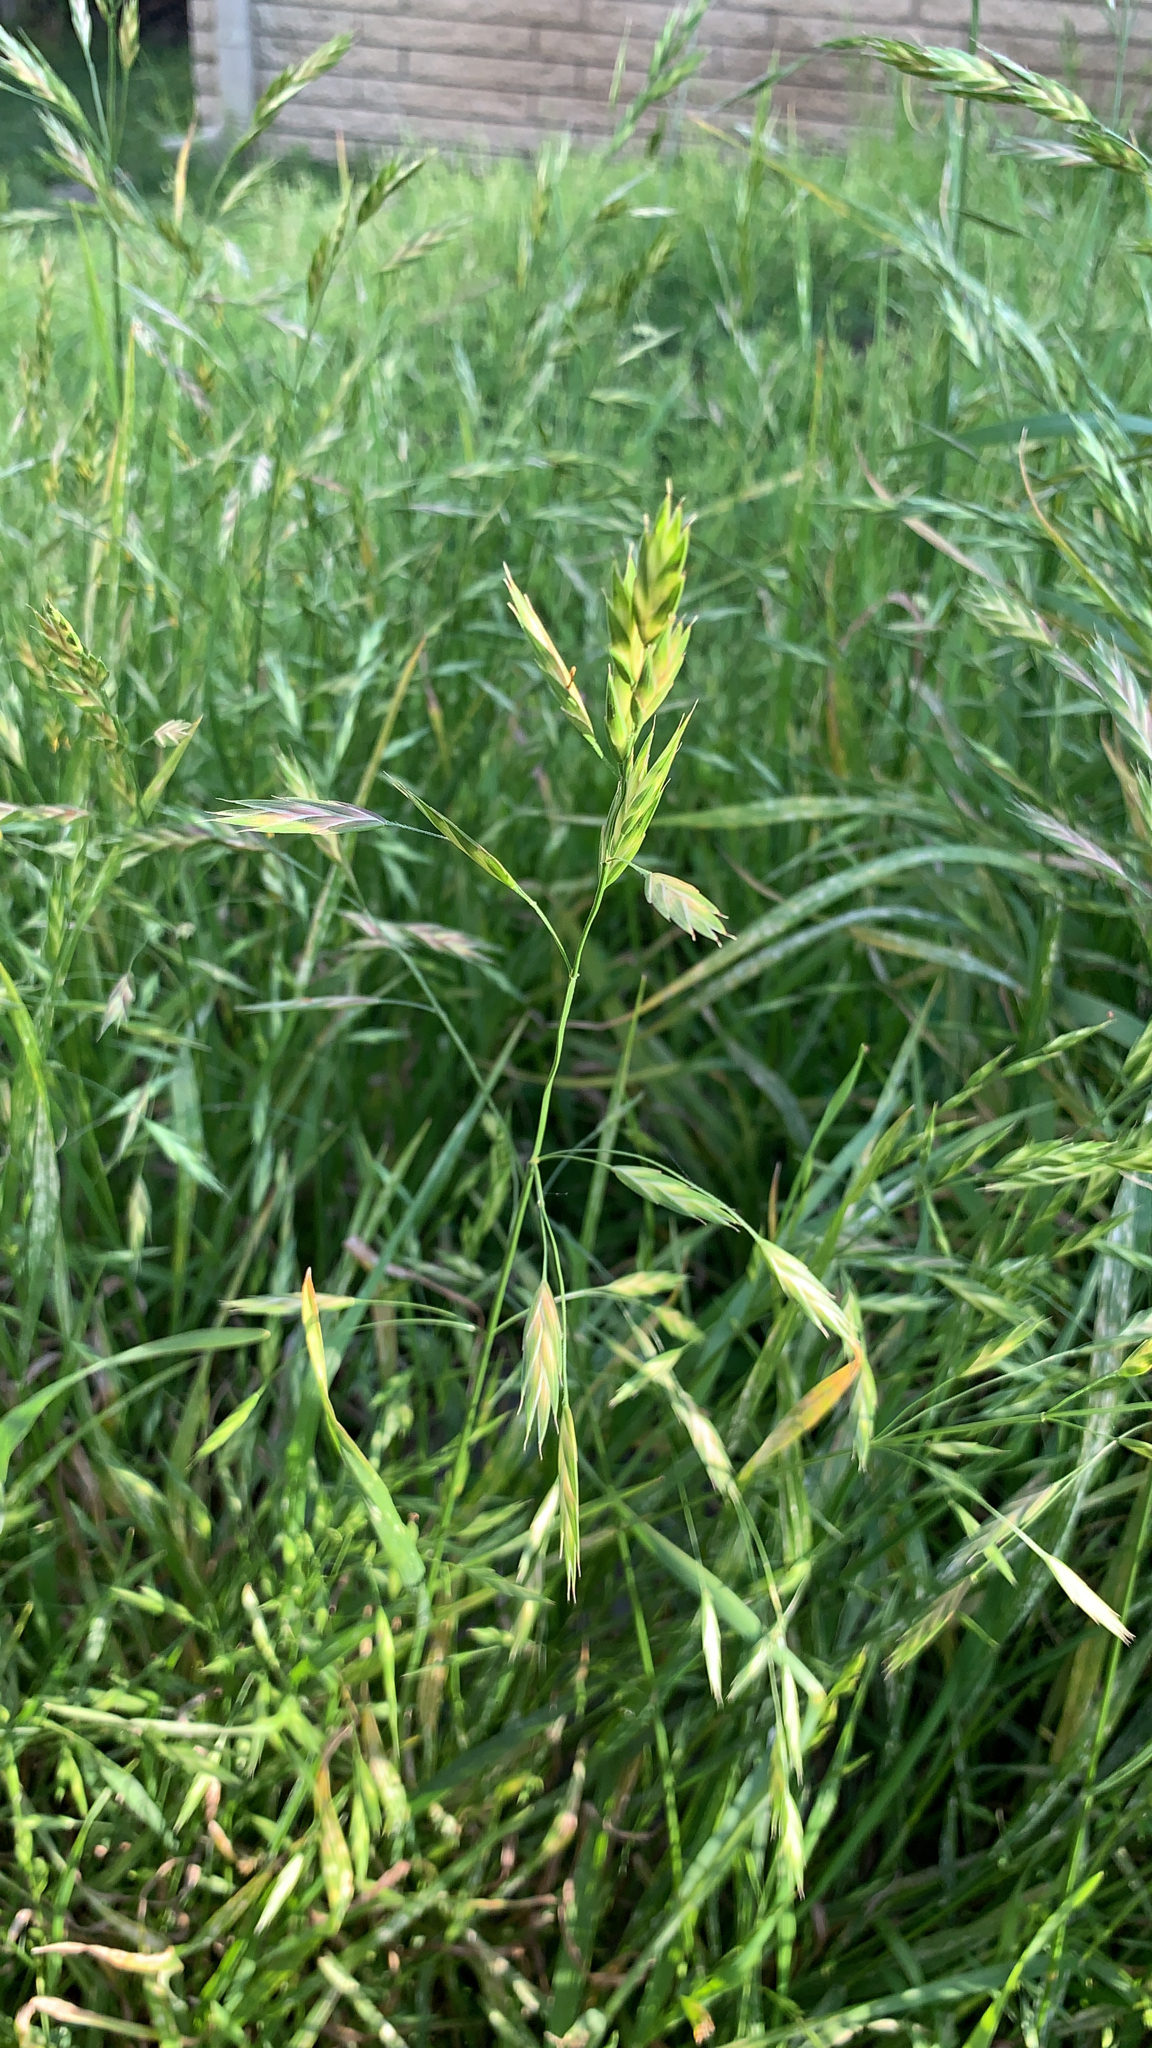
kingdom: Plantae
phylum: Tracheophyta
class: Liliopsida
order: Poales
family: Poaceae
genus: Bromus
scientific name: Bromus catharticus
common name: Rescuegrass
